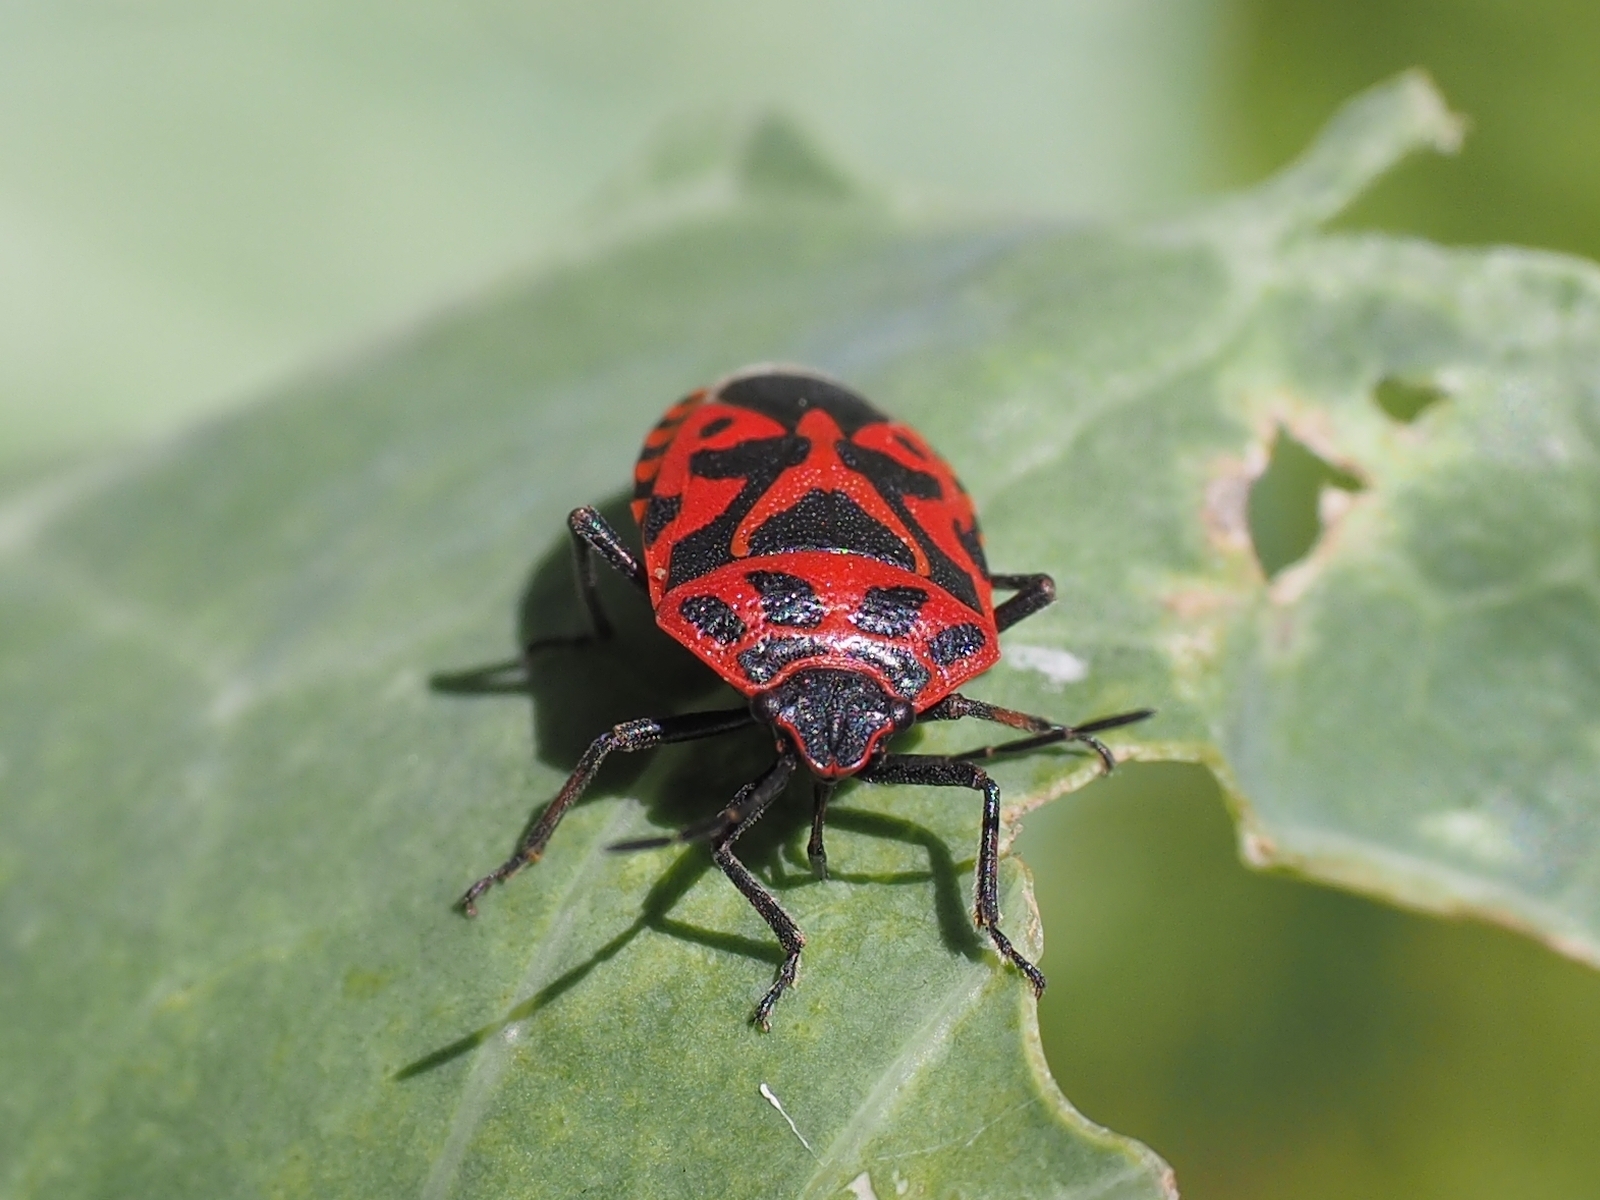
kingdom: Animalia
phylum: Arthropoda
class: Insecta
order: Hemiptera
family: Pentatomidae
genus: Eurydema
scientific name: Eurydema ventralis
